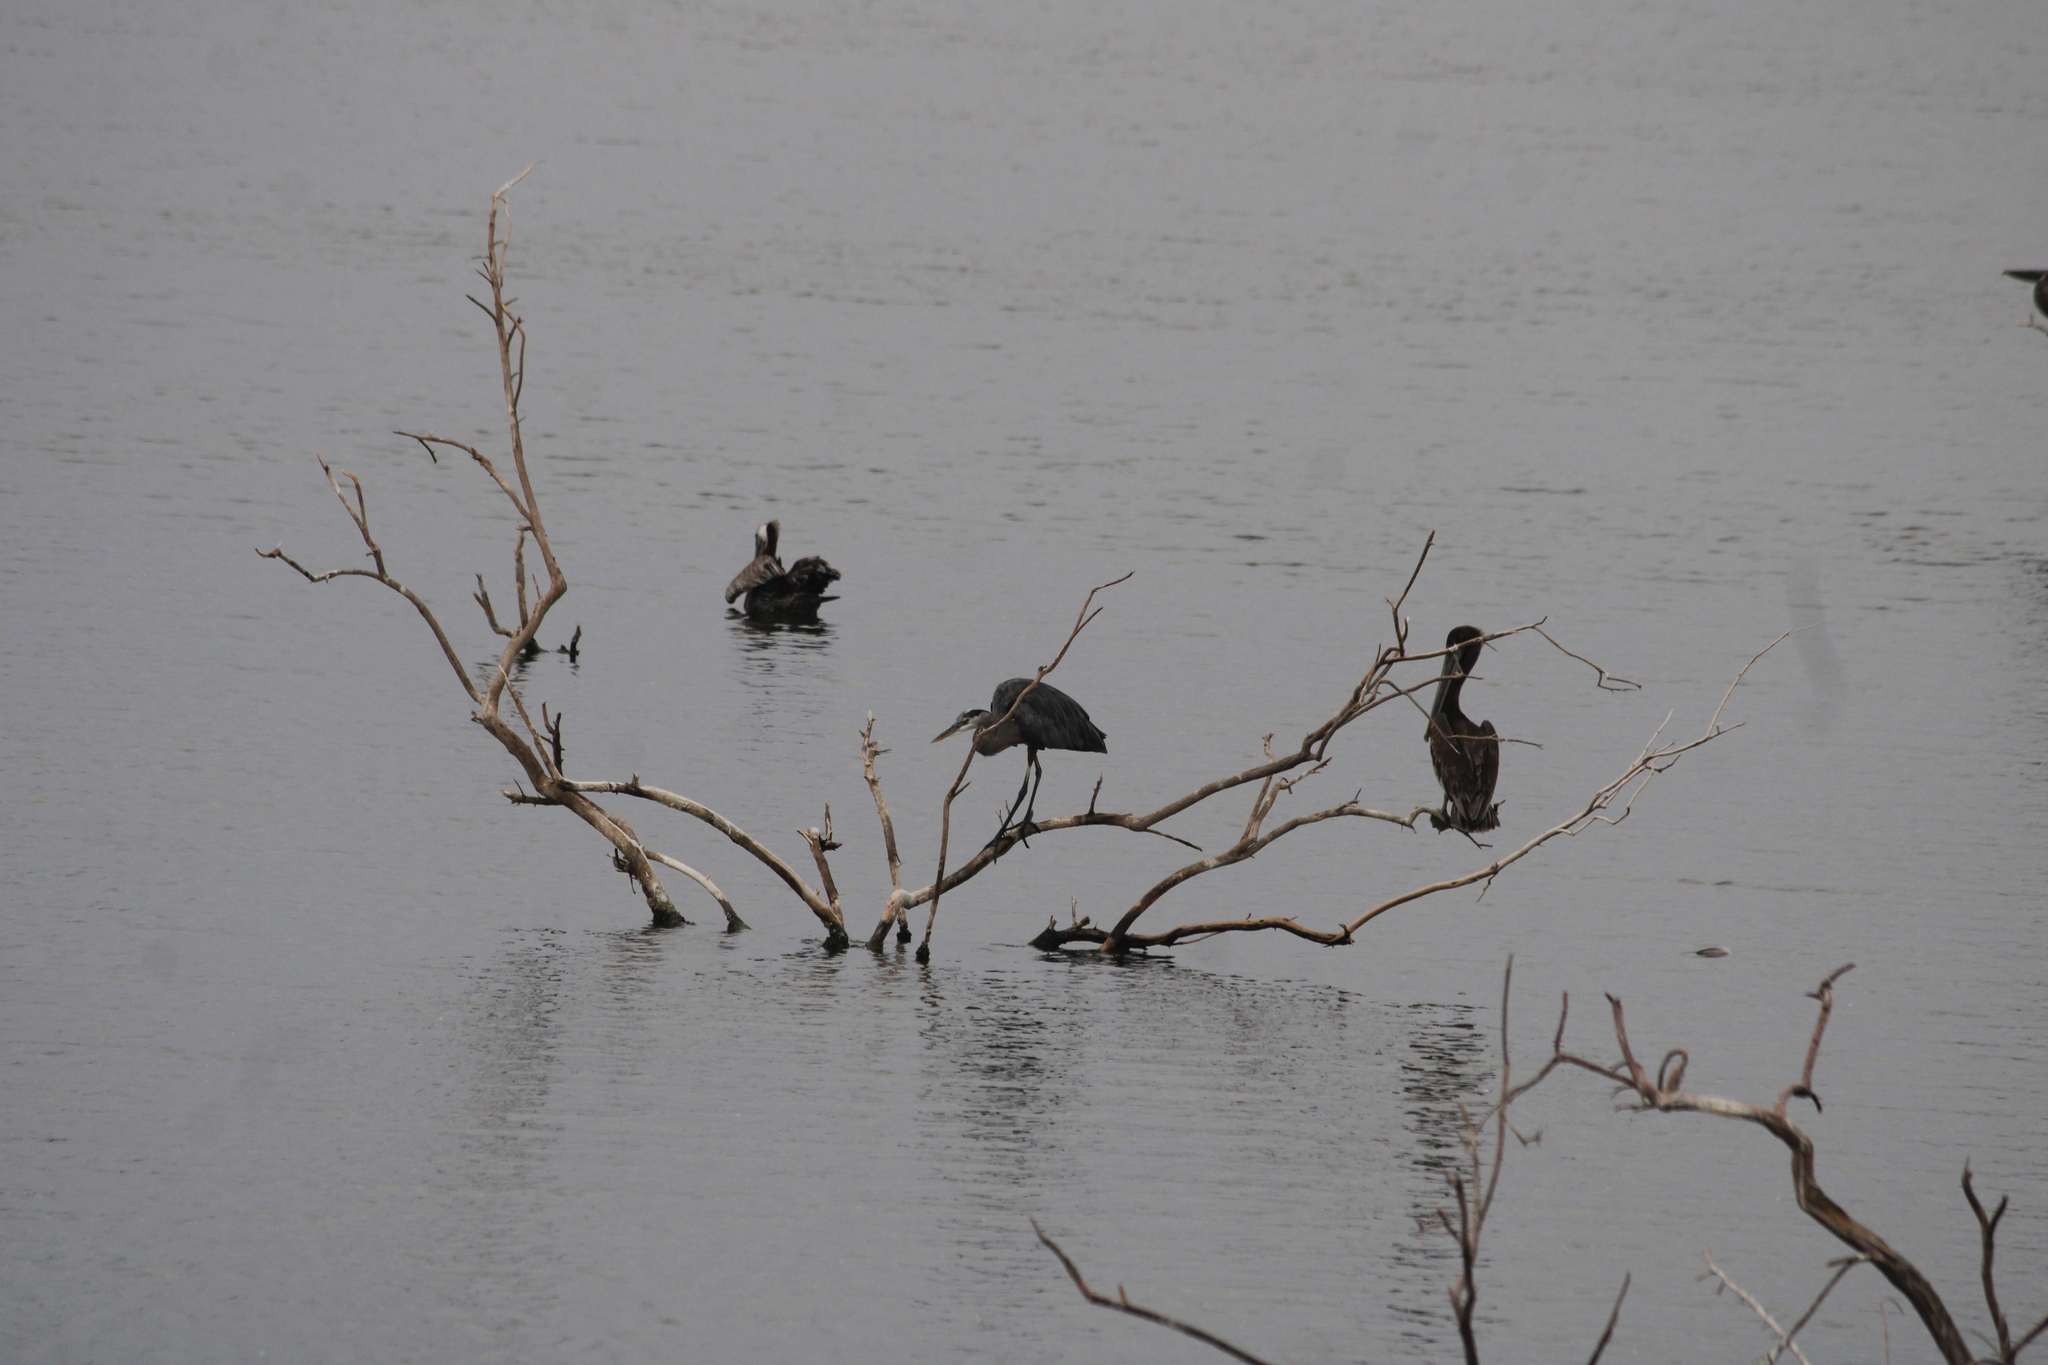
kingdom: Animalia
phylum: Chordata
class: Aves
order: Pelecaniformes
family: Ardeidae
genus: Ardea
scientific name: Ardea herodias
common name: Great blue heron
